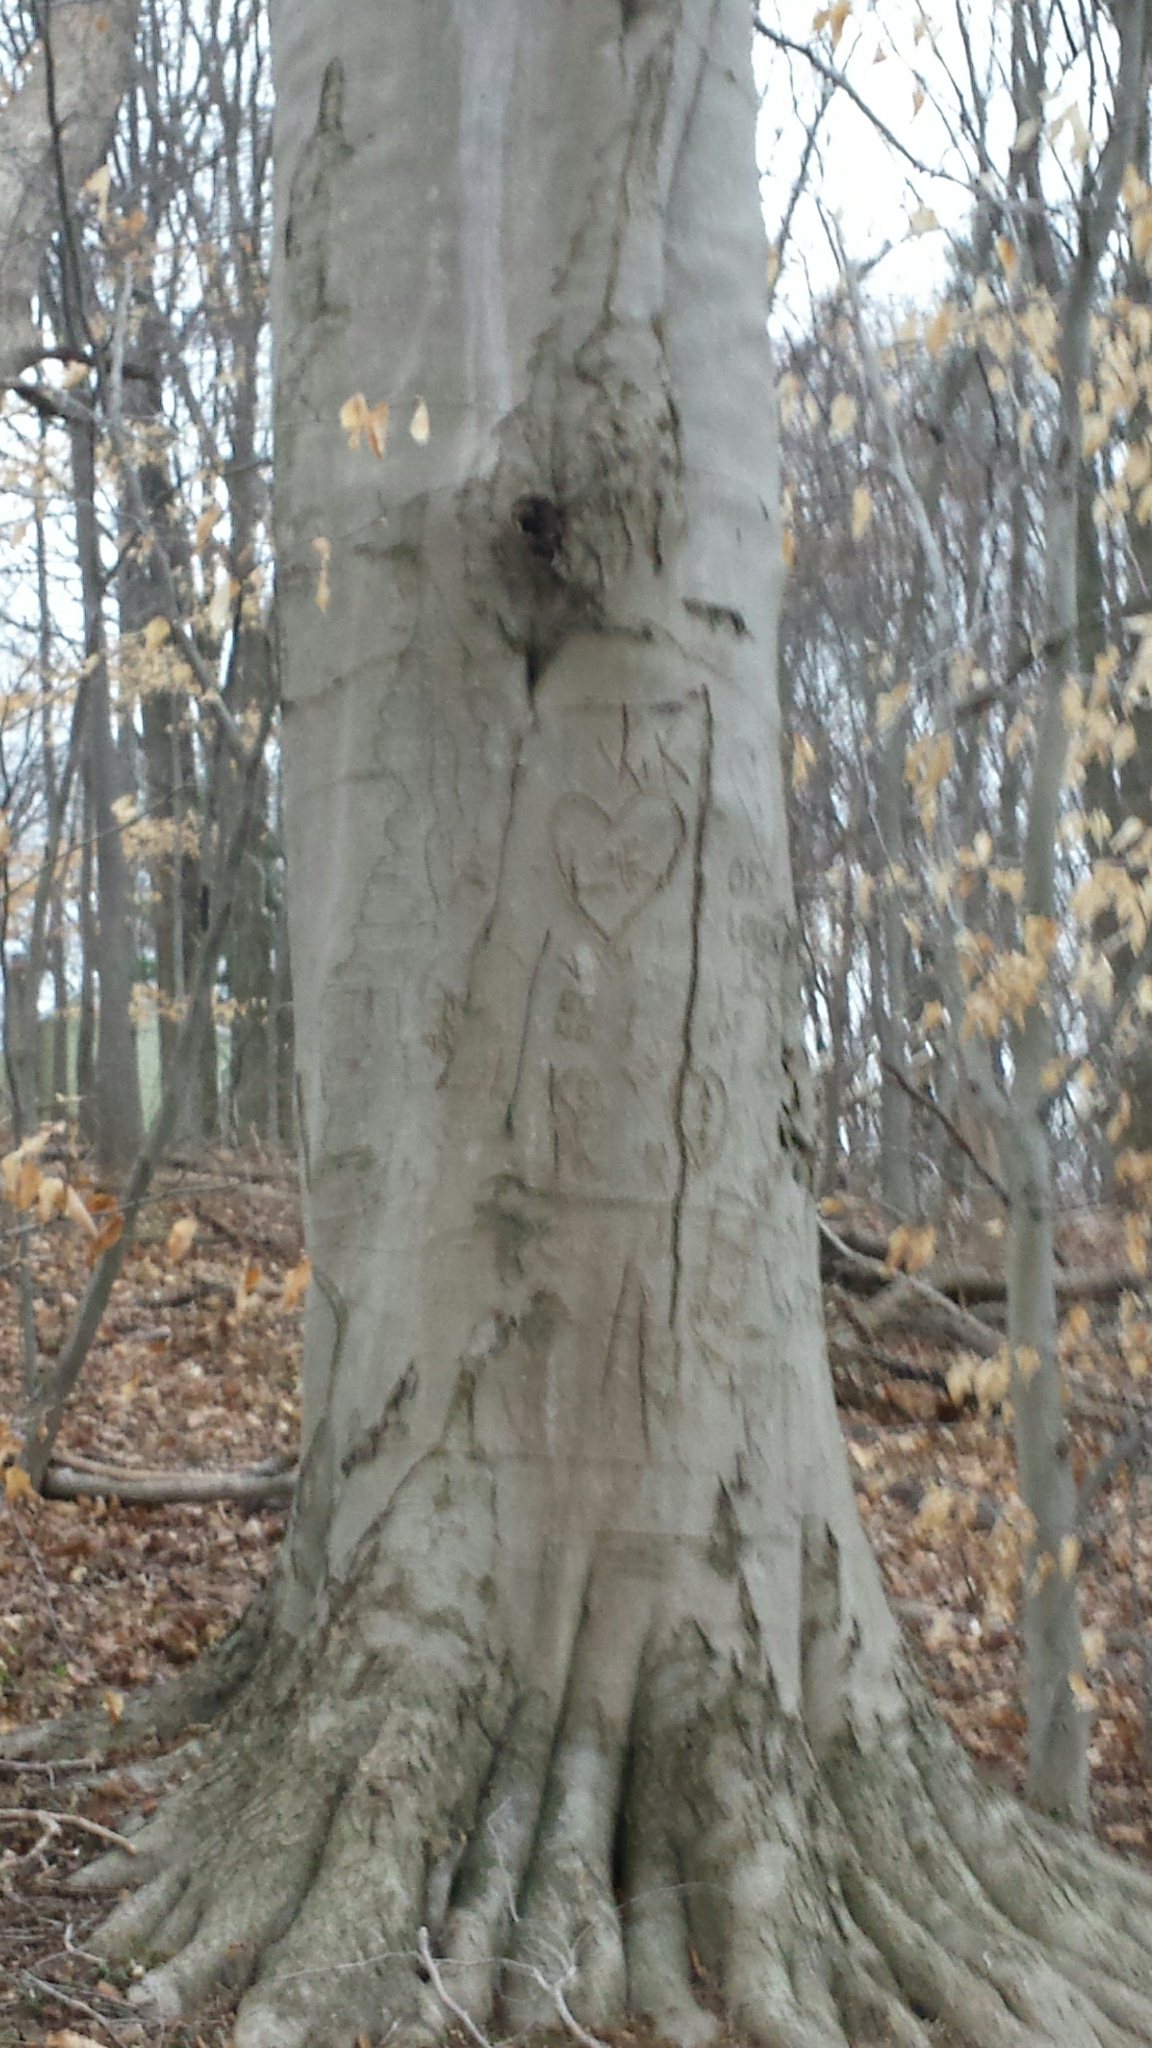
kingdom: Plantae
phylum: Tracheophyta
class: Magnoliopsida
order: Fagales
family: Fagaceae
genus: Fagus
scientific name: Fagus grandifolia
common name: American beech
